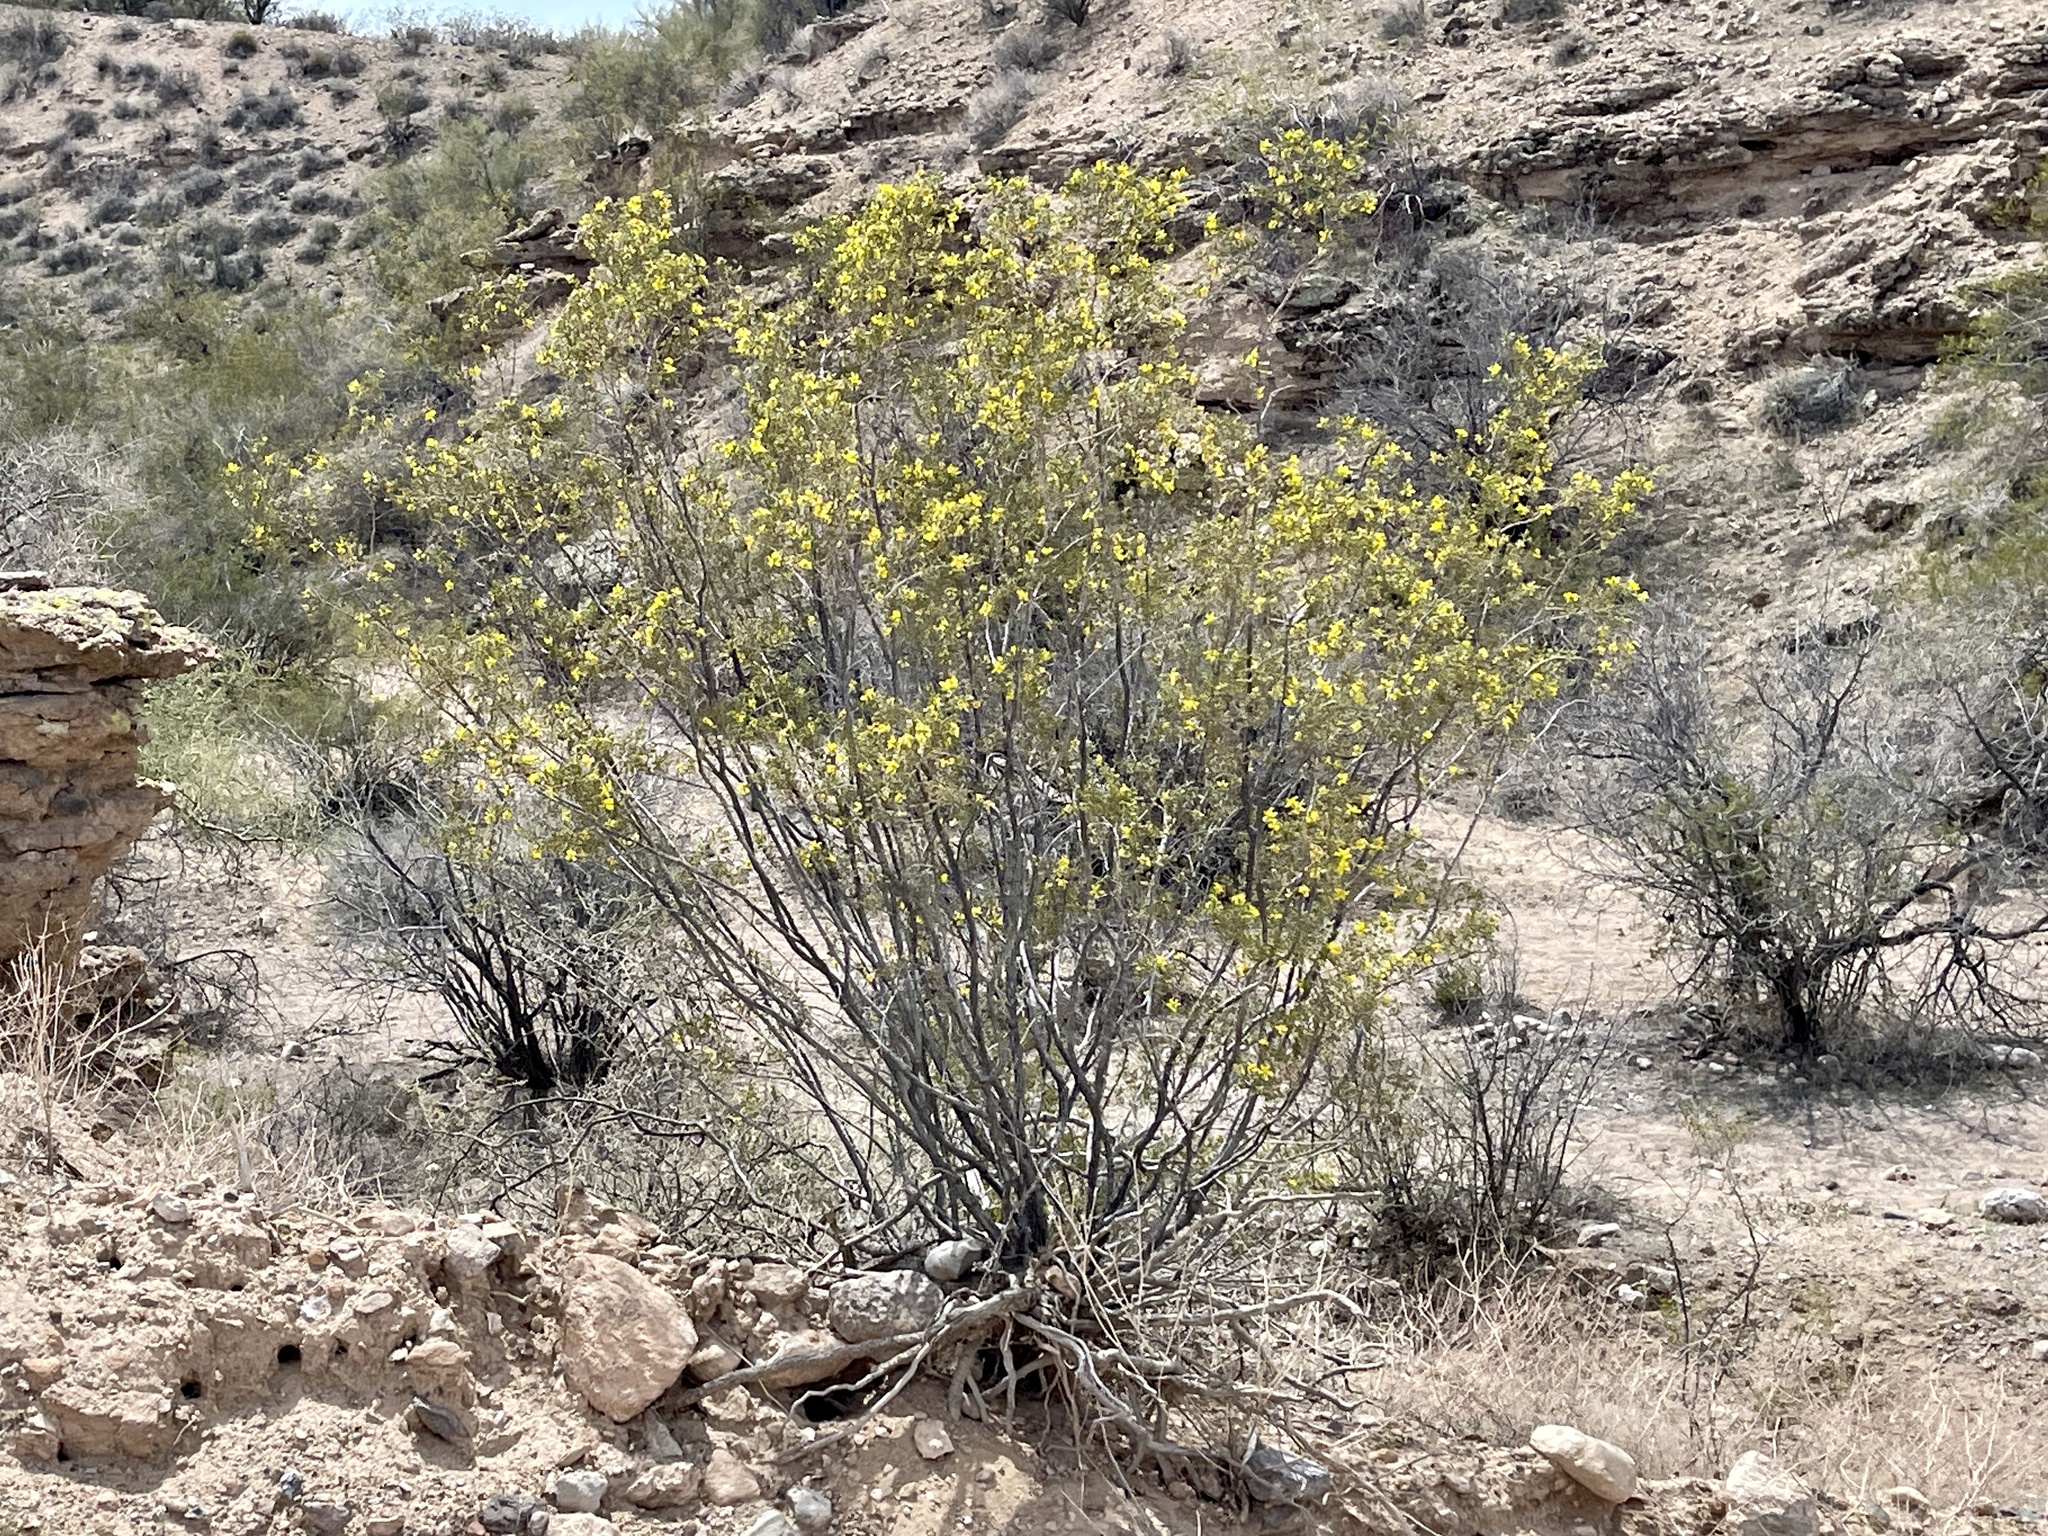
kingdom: Plantae
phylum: Tracheophyta
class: Magnoliopsida
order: Zygophyllales
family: Zygophyllaceae
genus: Larrea
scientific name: Larrea tridentata
